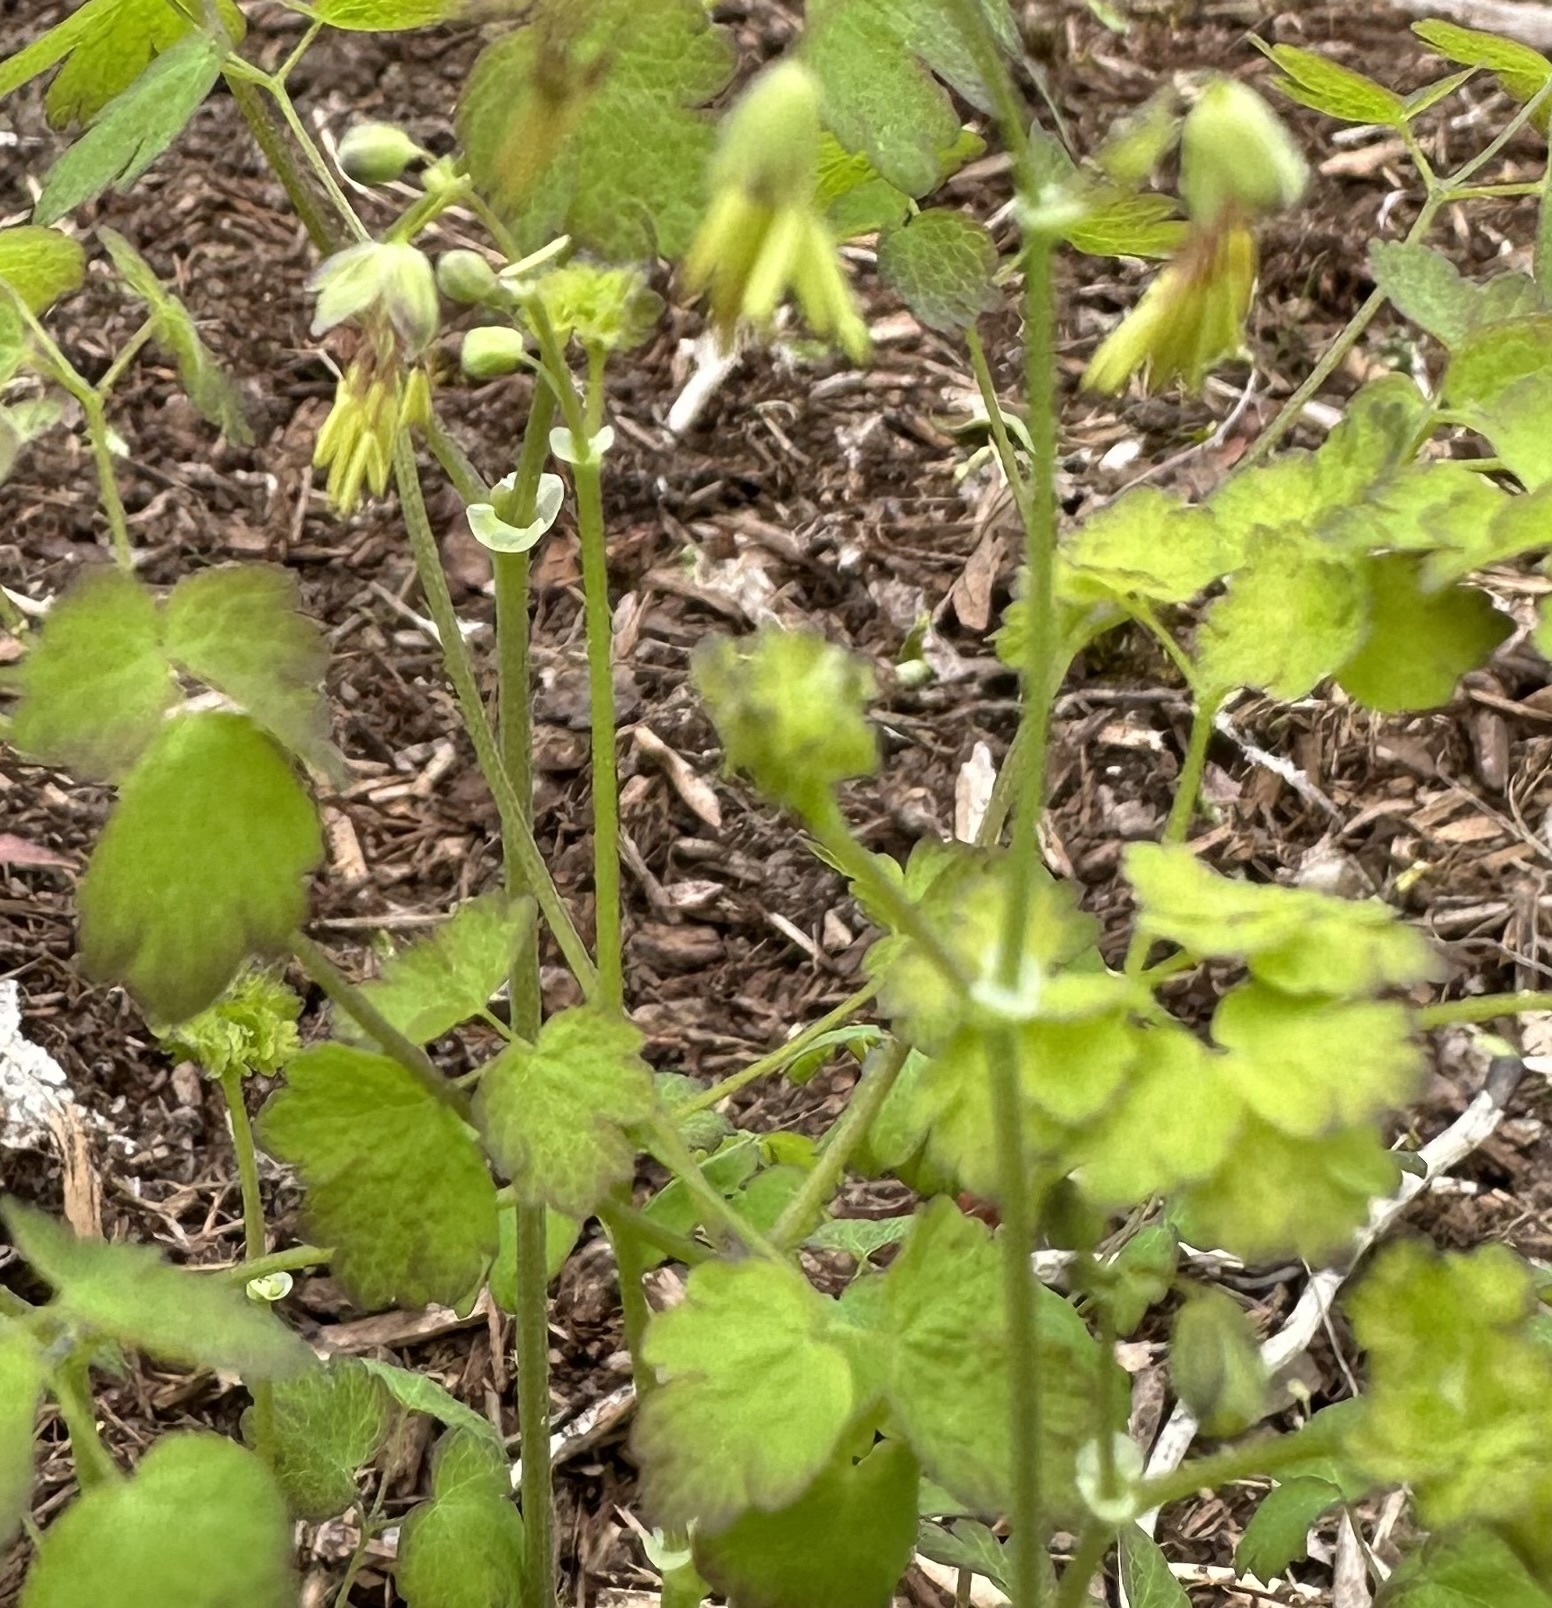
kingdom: Plantae
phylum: Tracheophyta
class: Magnoliopsida
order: Ranunculales
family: Ranunculaceae
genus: Thalictrum
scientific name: Thalictrum occidentale
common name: Western meadow-rue
